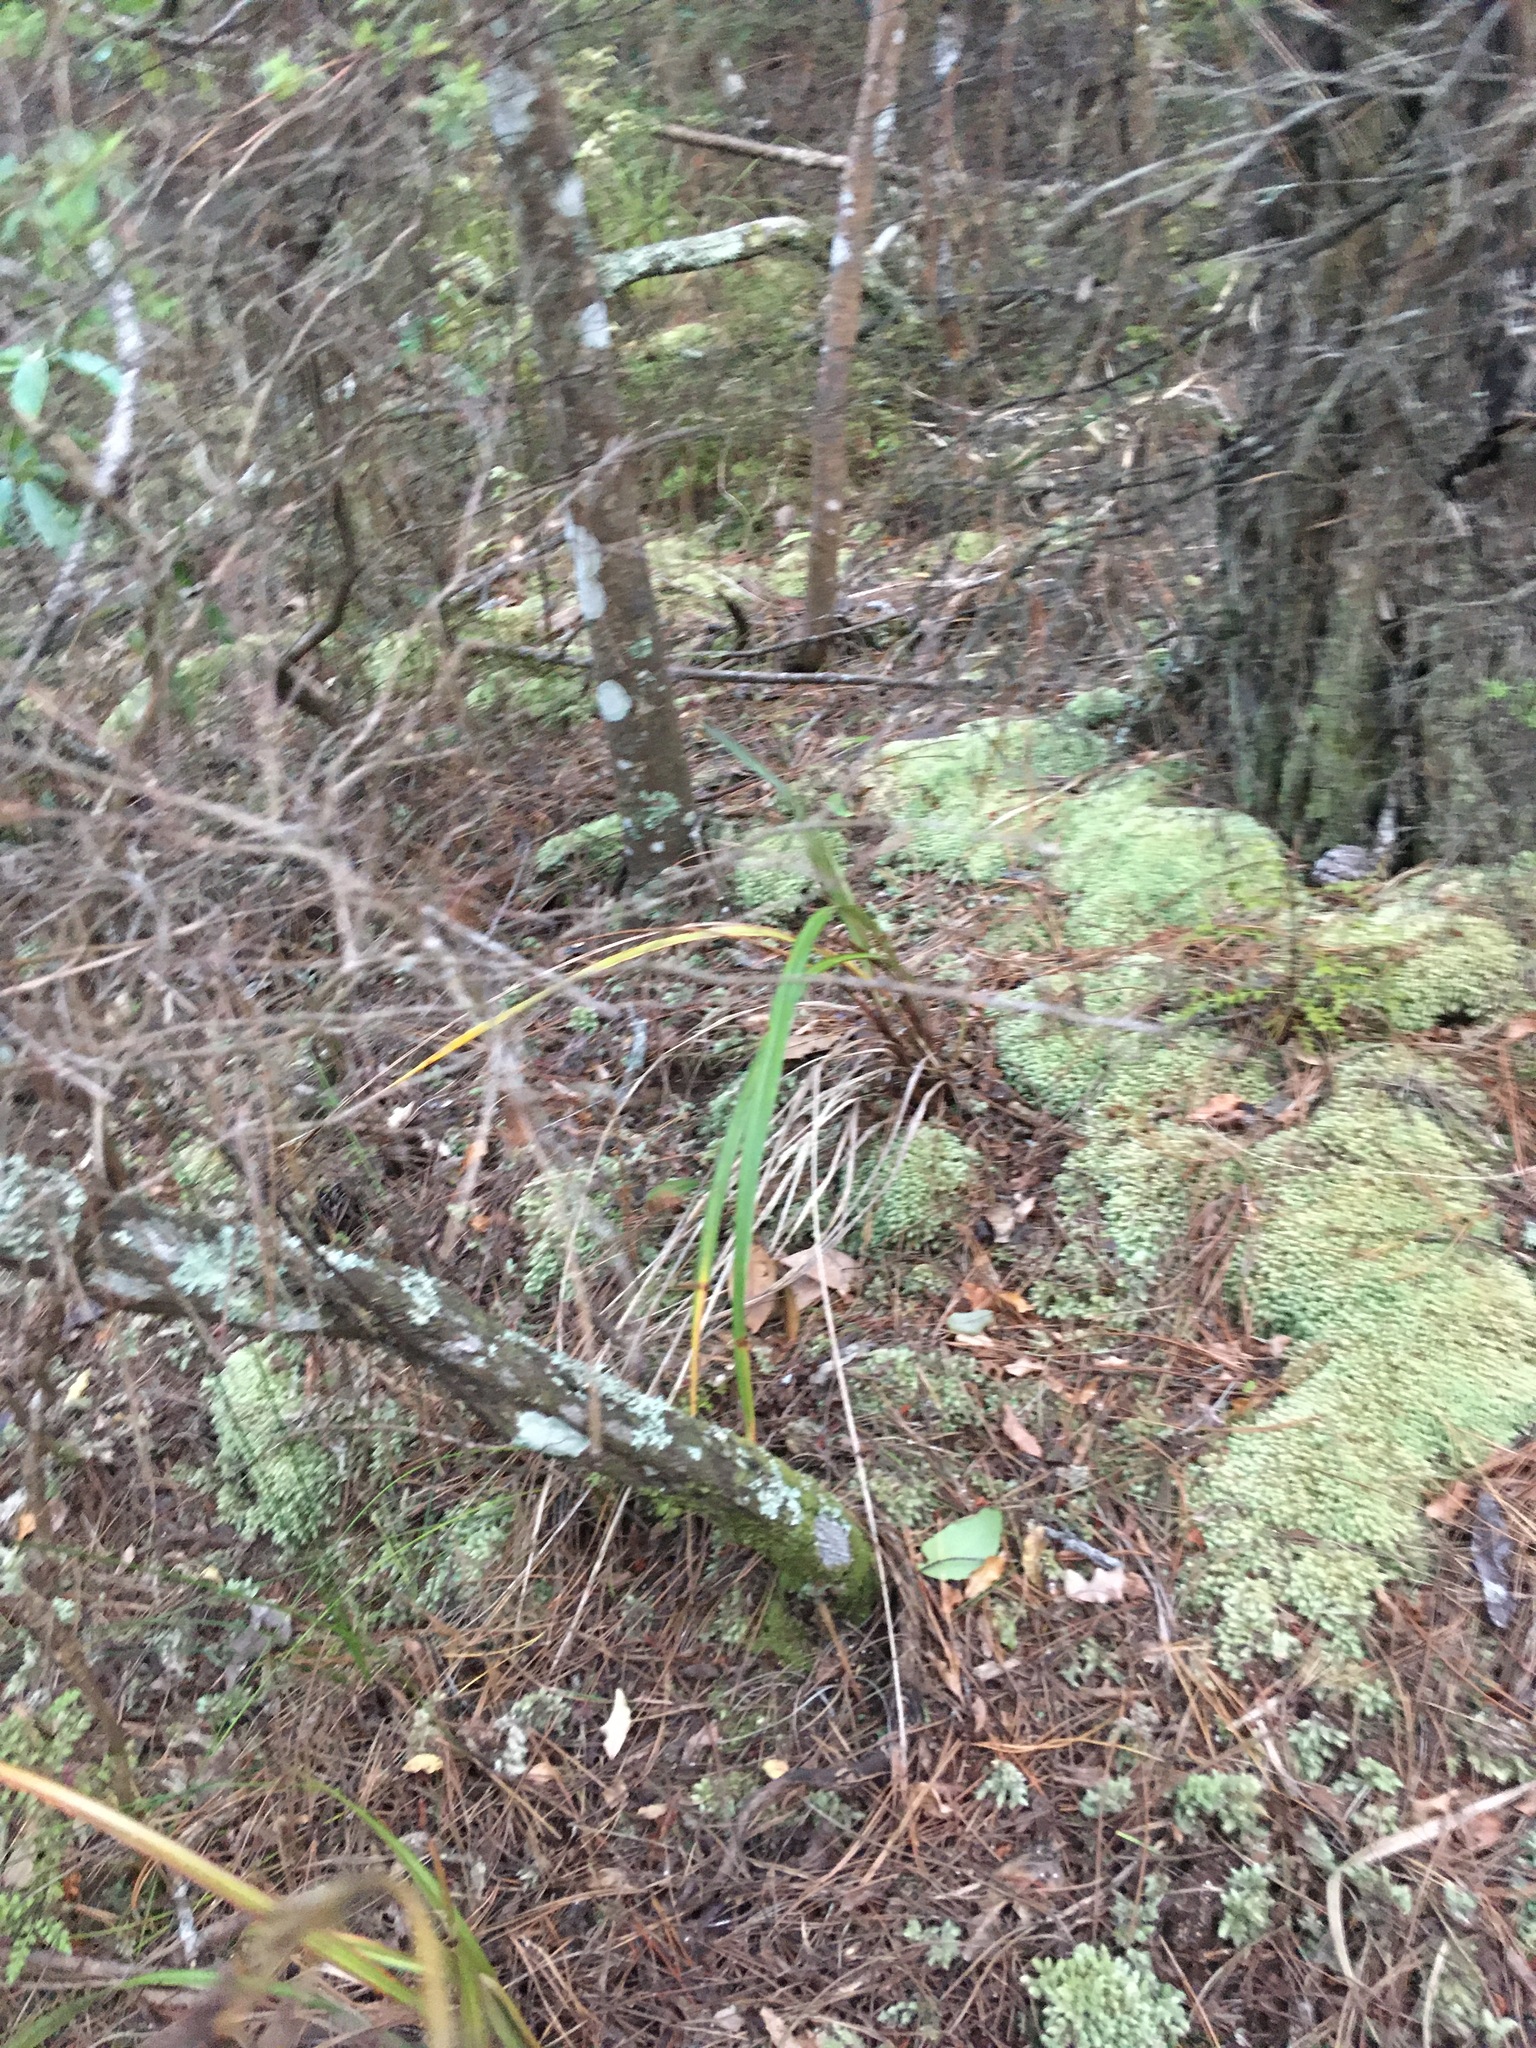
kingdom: Plantae
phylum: Tracheophyta
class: Liliopsida
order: Asparagales
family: Asphodelaceae
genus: Dianella
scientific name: Dianella nigra
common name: New zealand-blueberry
